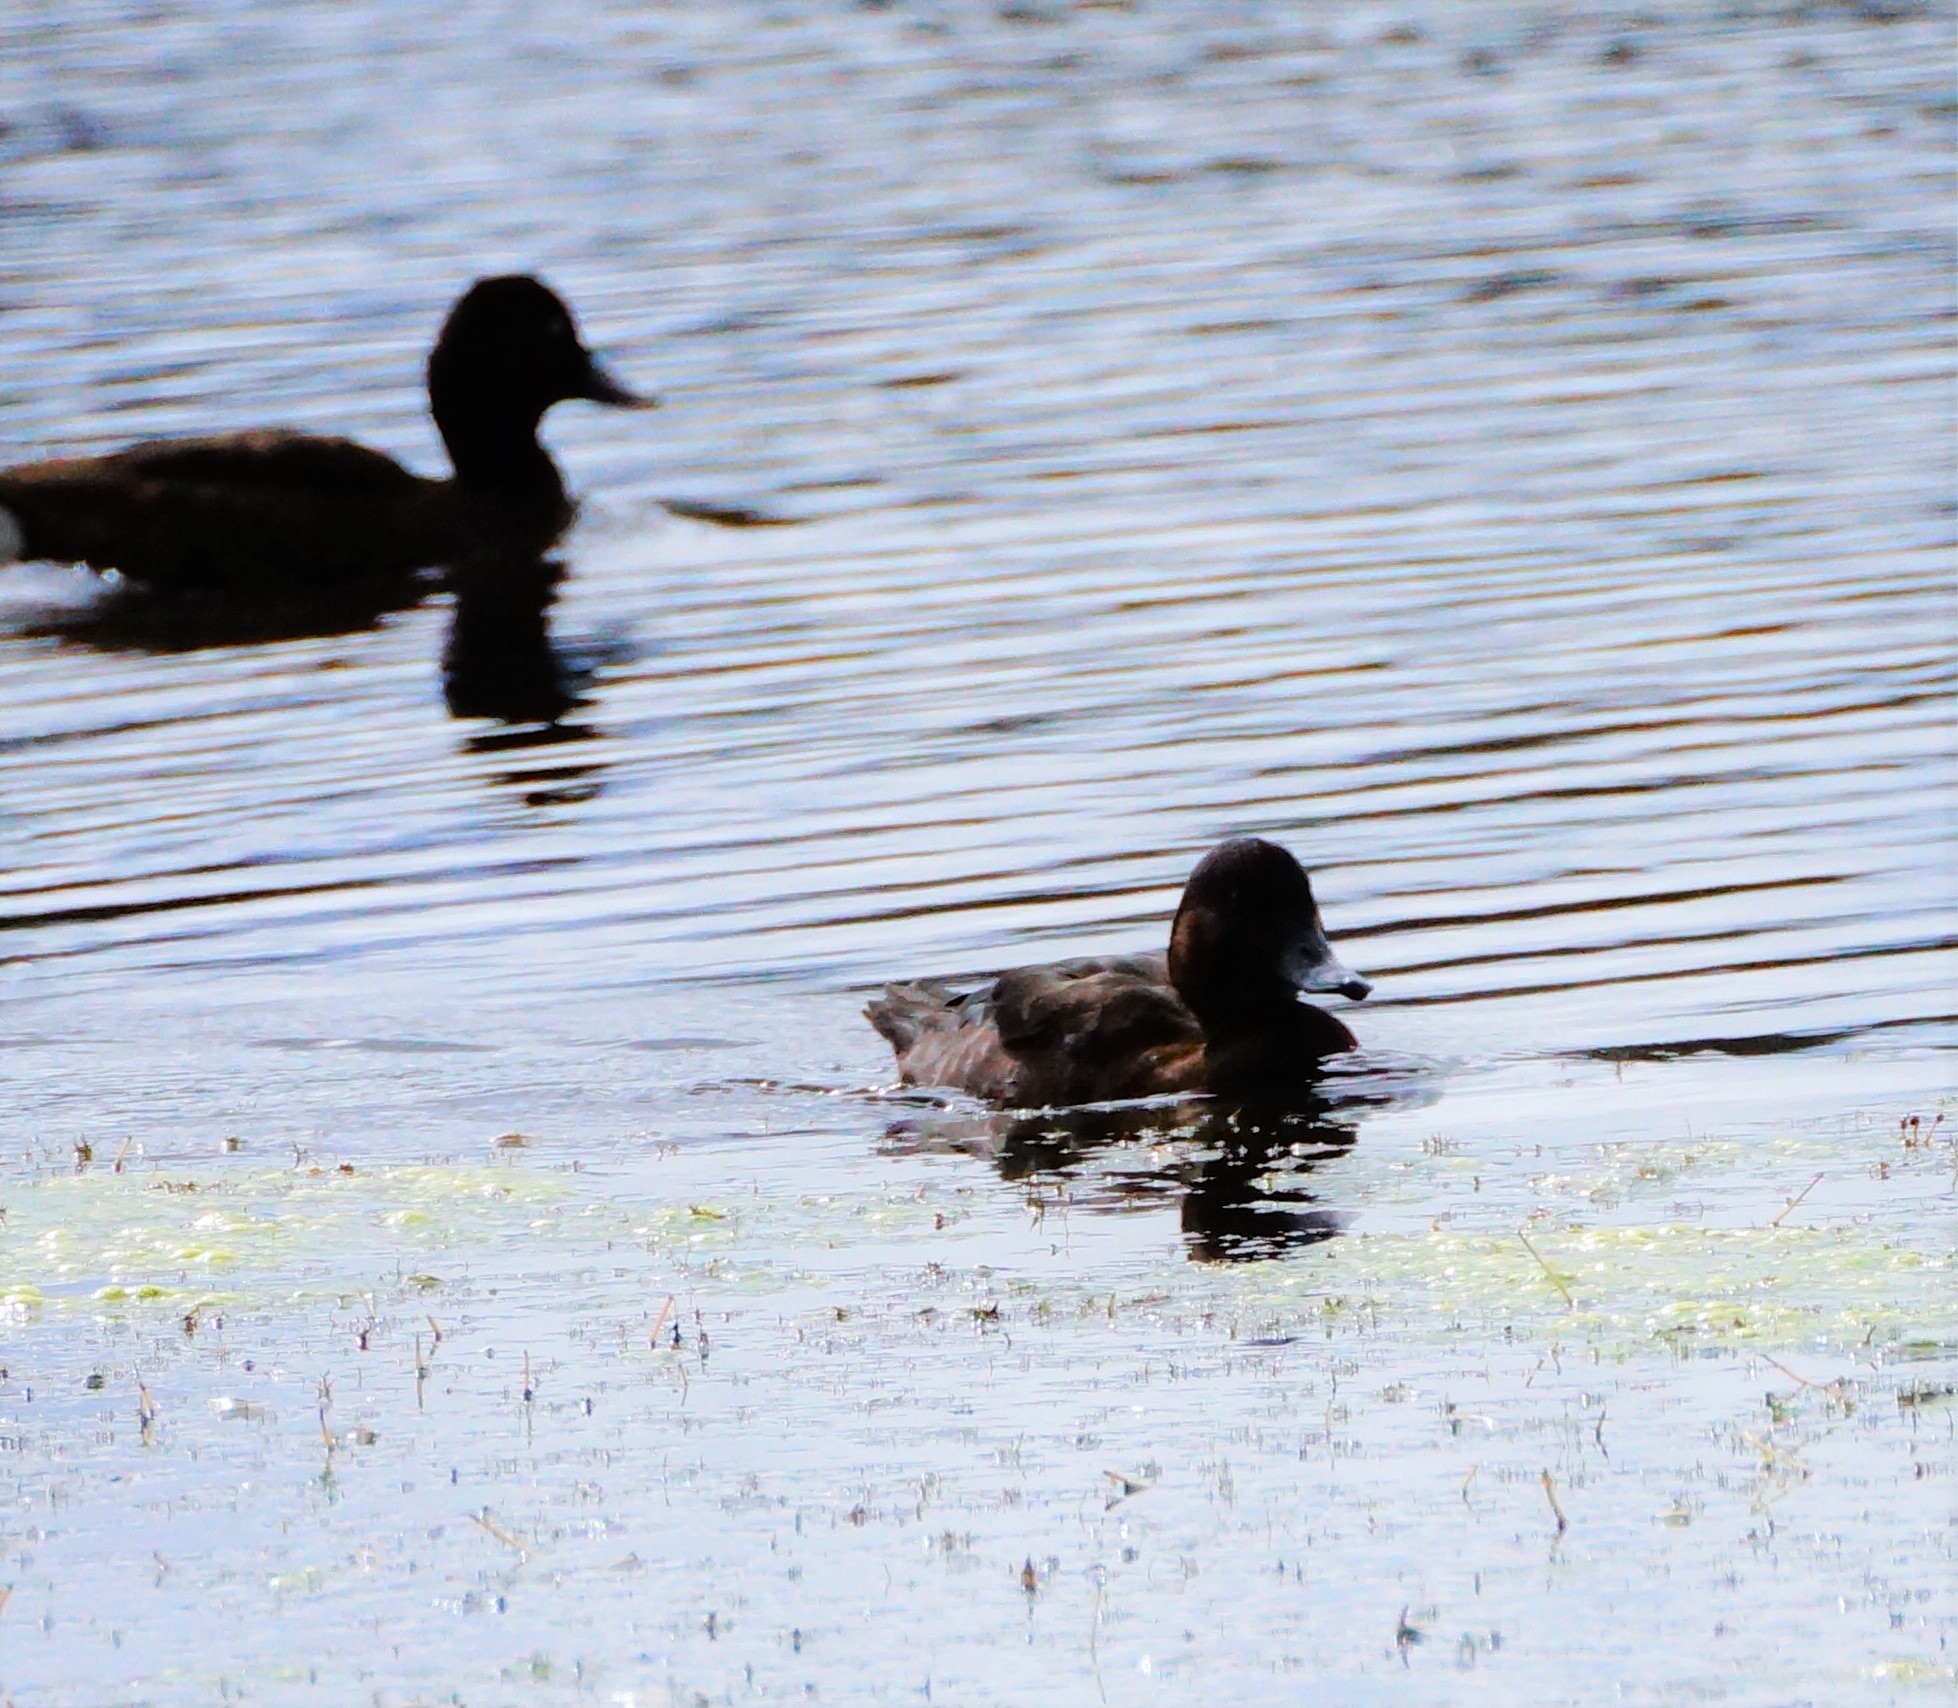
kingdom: Animalia
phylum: Chordata
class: Aves
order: Anseriformes
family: Anatidae
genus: Aythya
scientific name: Aythya australis
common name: Hardhead
